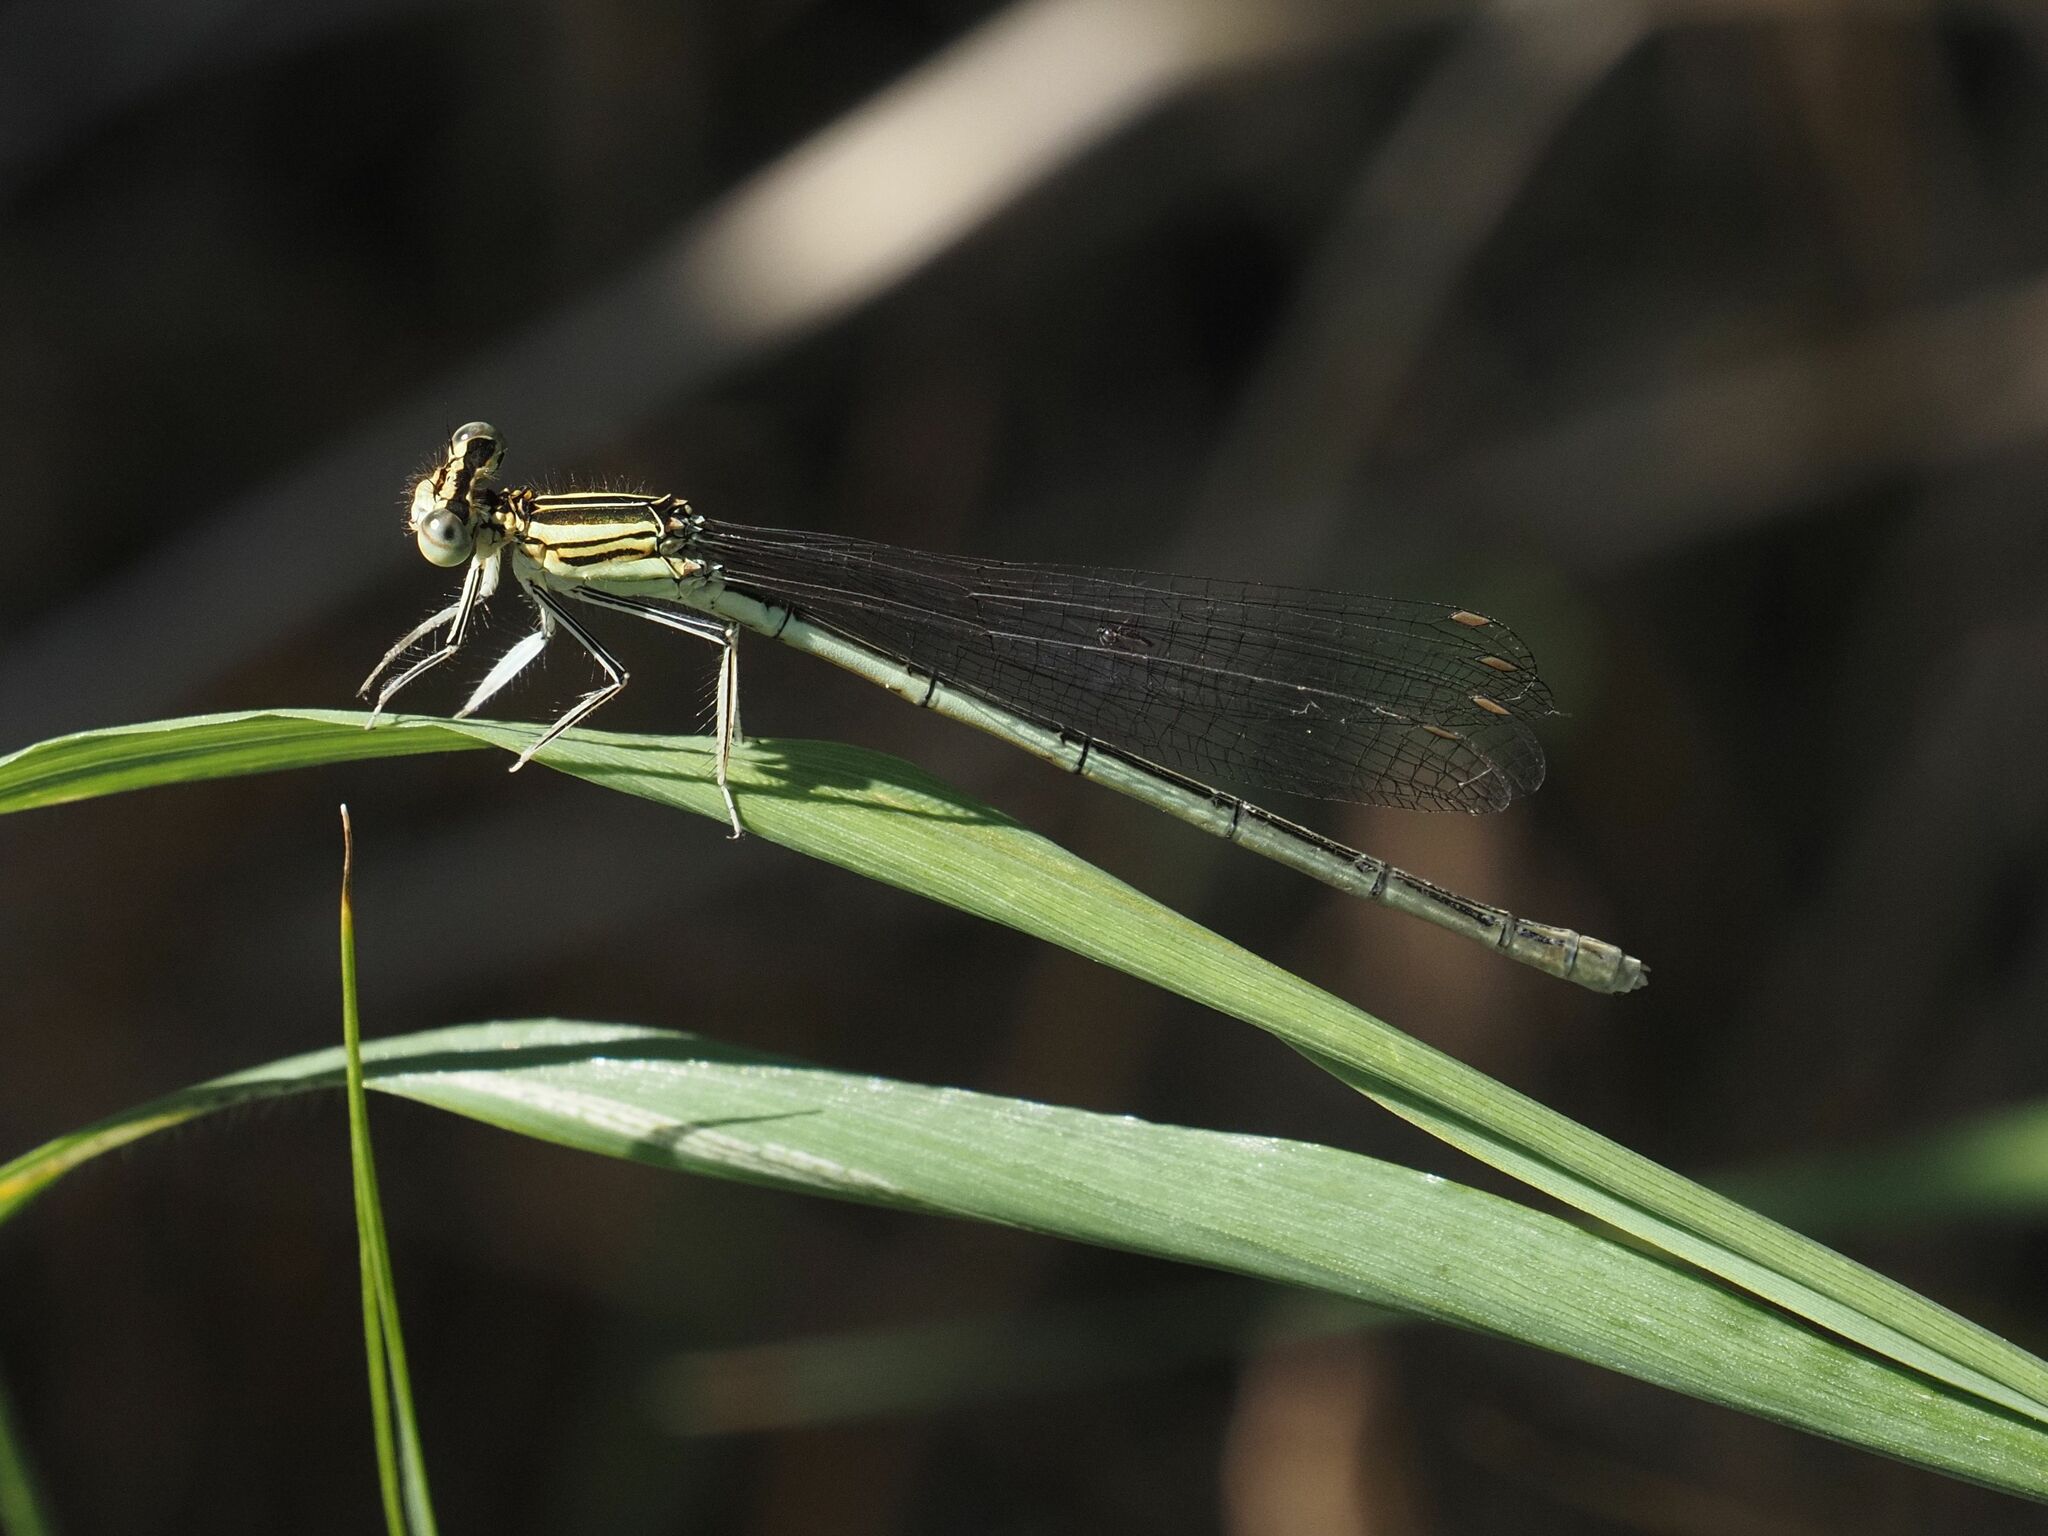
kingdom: Animalia
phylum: Arthropoda
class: Insecta
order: Odonata
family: Platycnemididae
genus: Platycnemis
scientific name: Platycnemis pennipes
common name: White-legged damselfly
